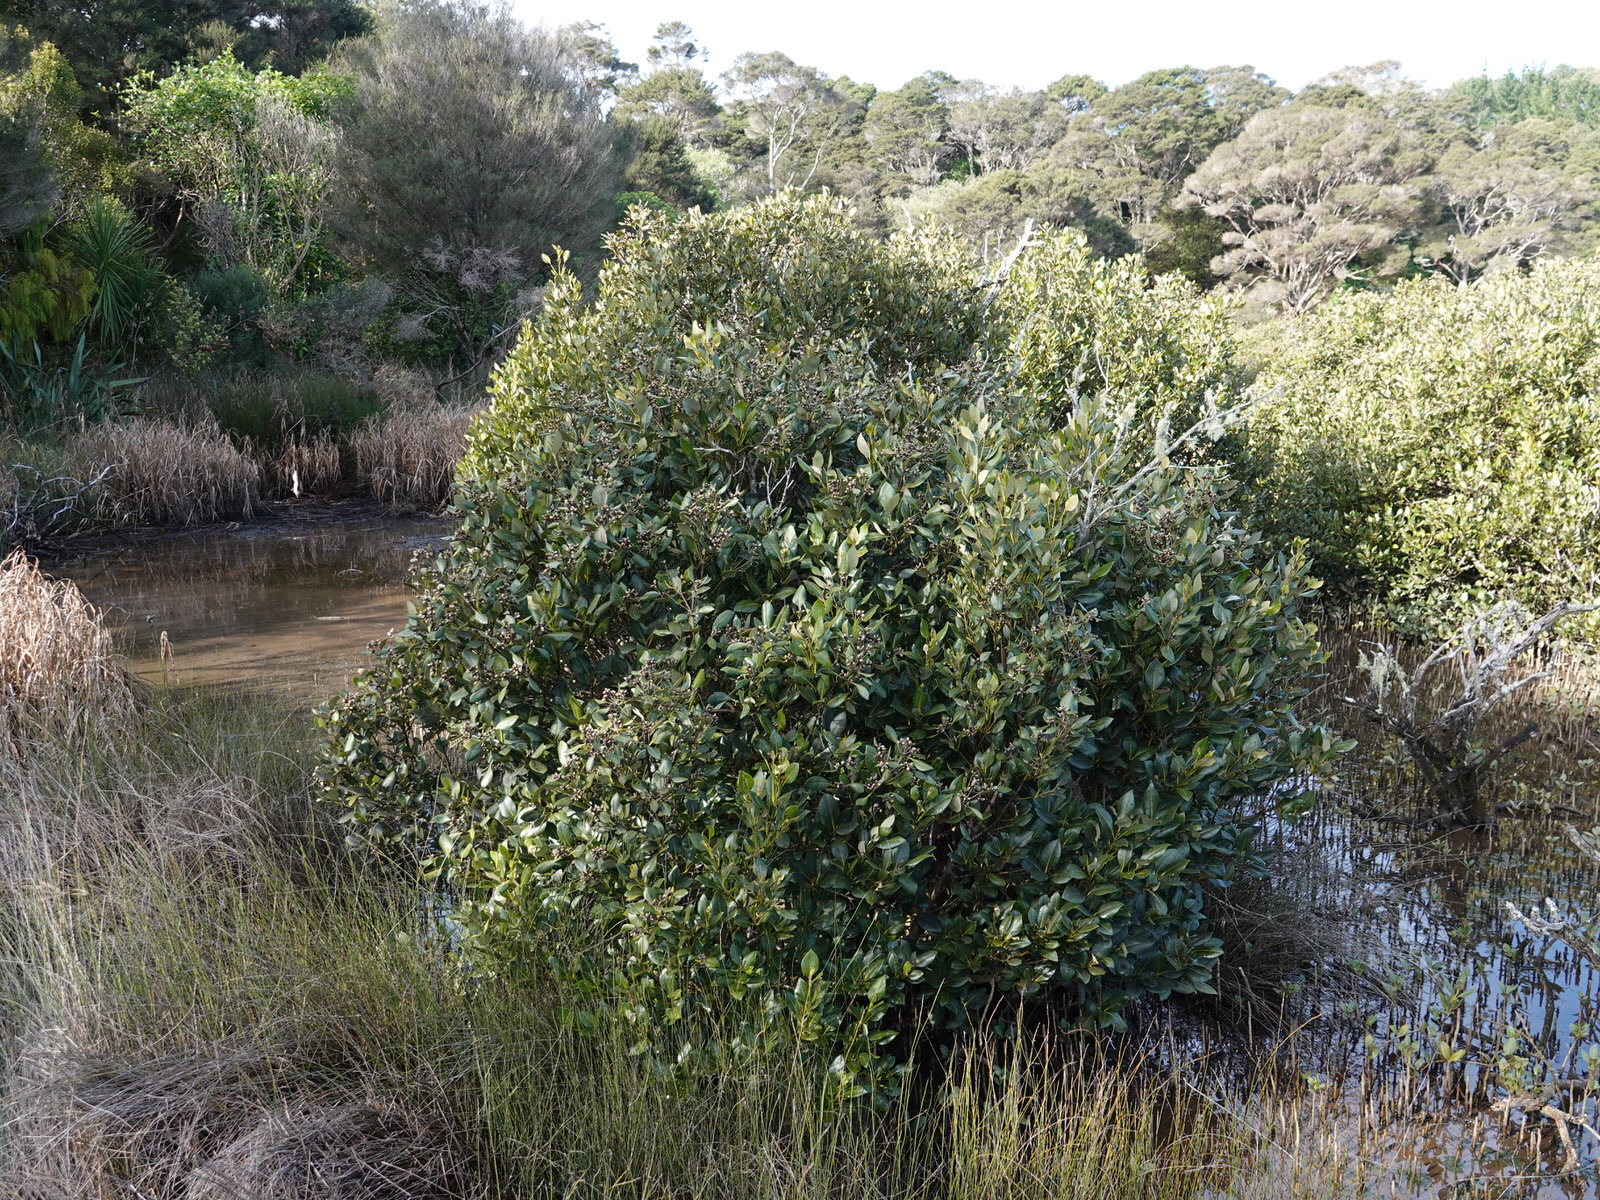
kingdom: Plantae
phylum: Tracheophyta
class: Magnoliopsida
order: Lamiales
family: Acanthaceae
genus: Avicennia
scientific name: Avicennia marina
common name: Gray mangrove
